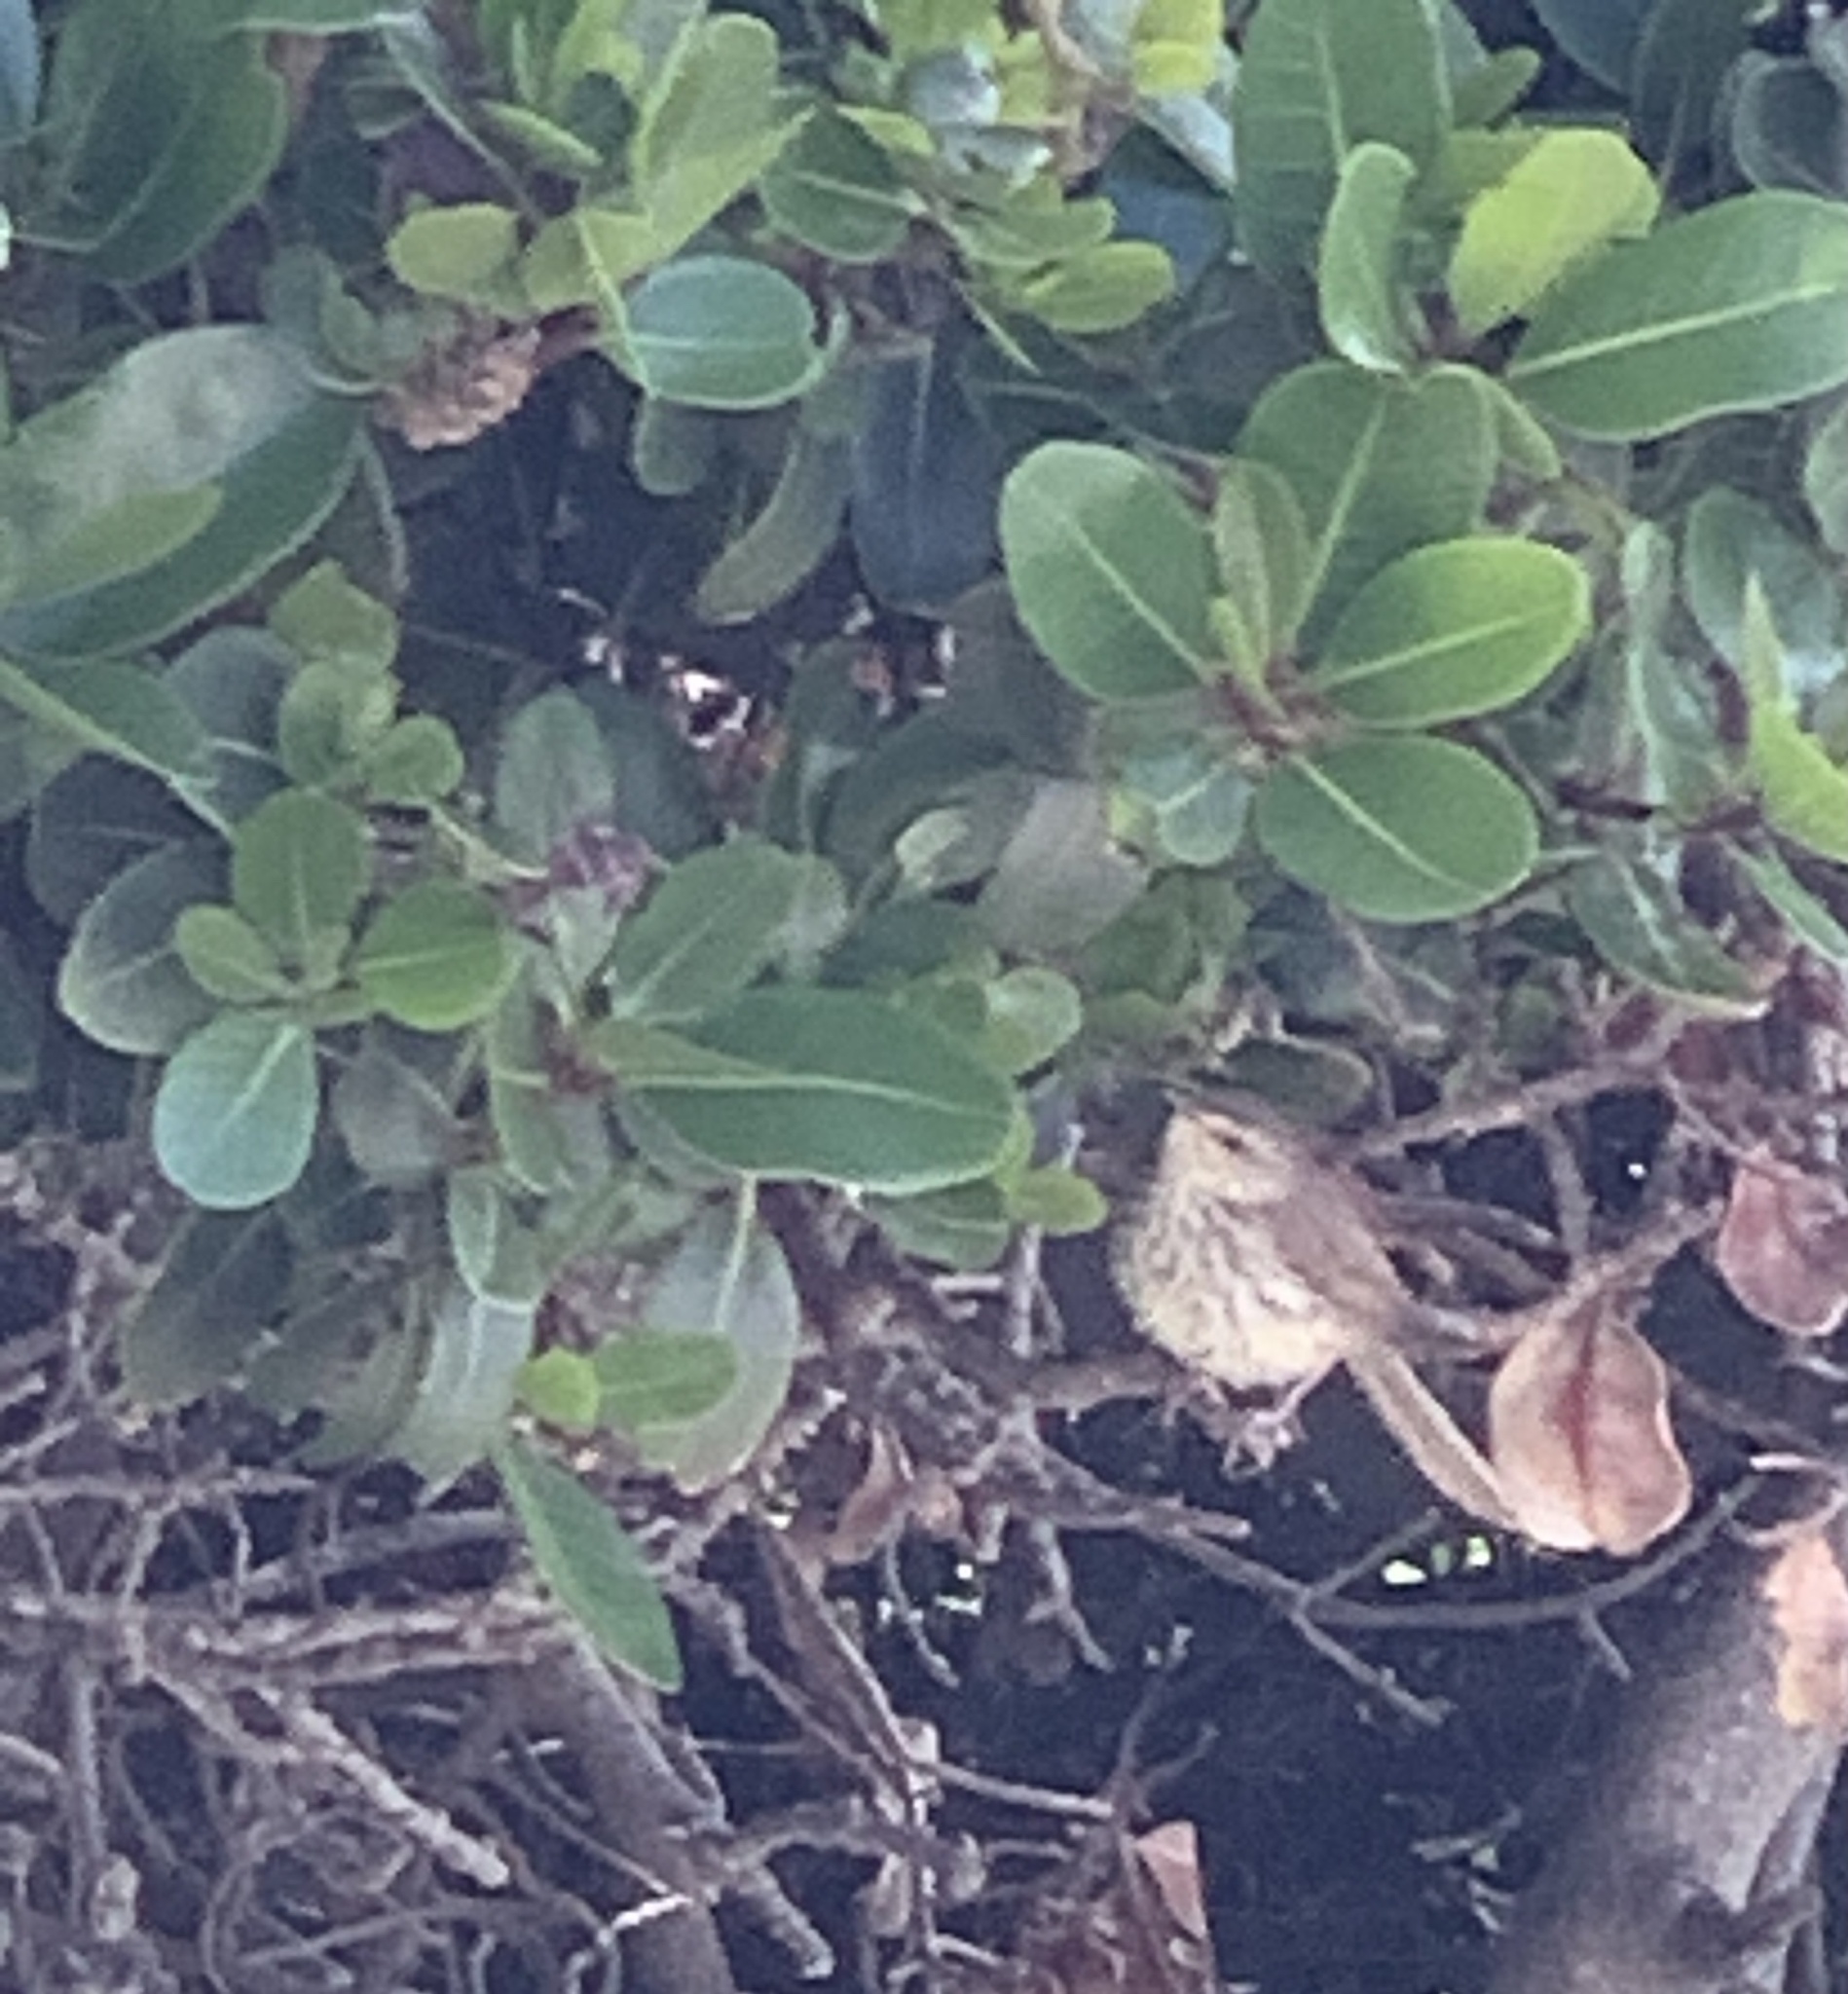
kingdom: Animalia
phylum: Chordata
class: Aves
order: Passeriformes
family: Cisticolidae
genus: Prinia
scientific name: Prinia maculosa
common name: Karoo prinia
